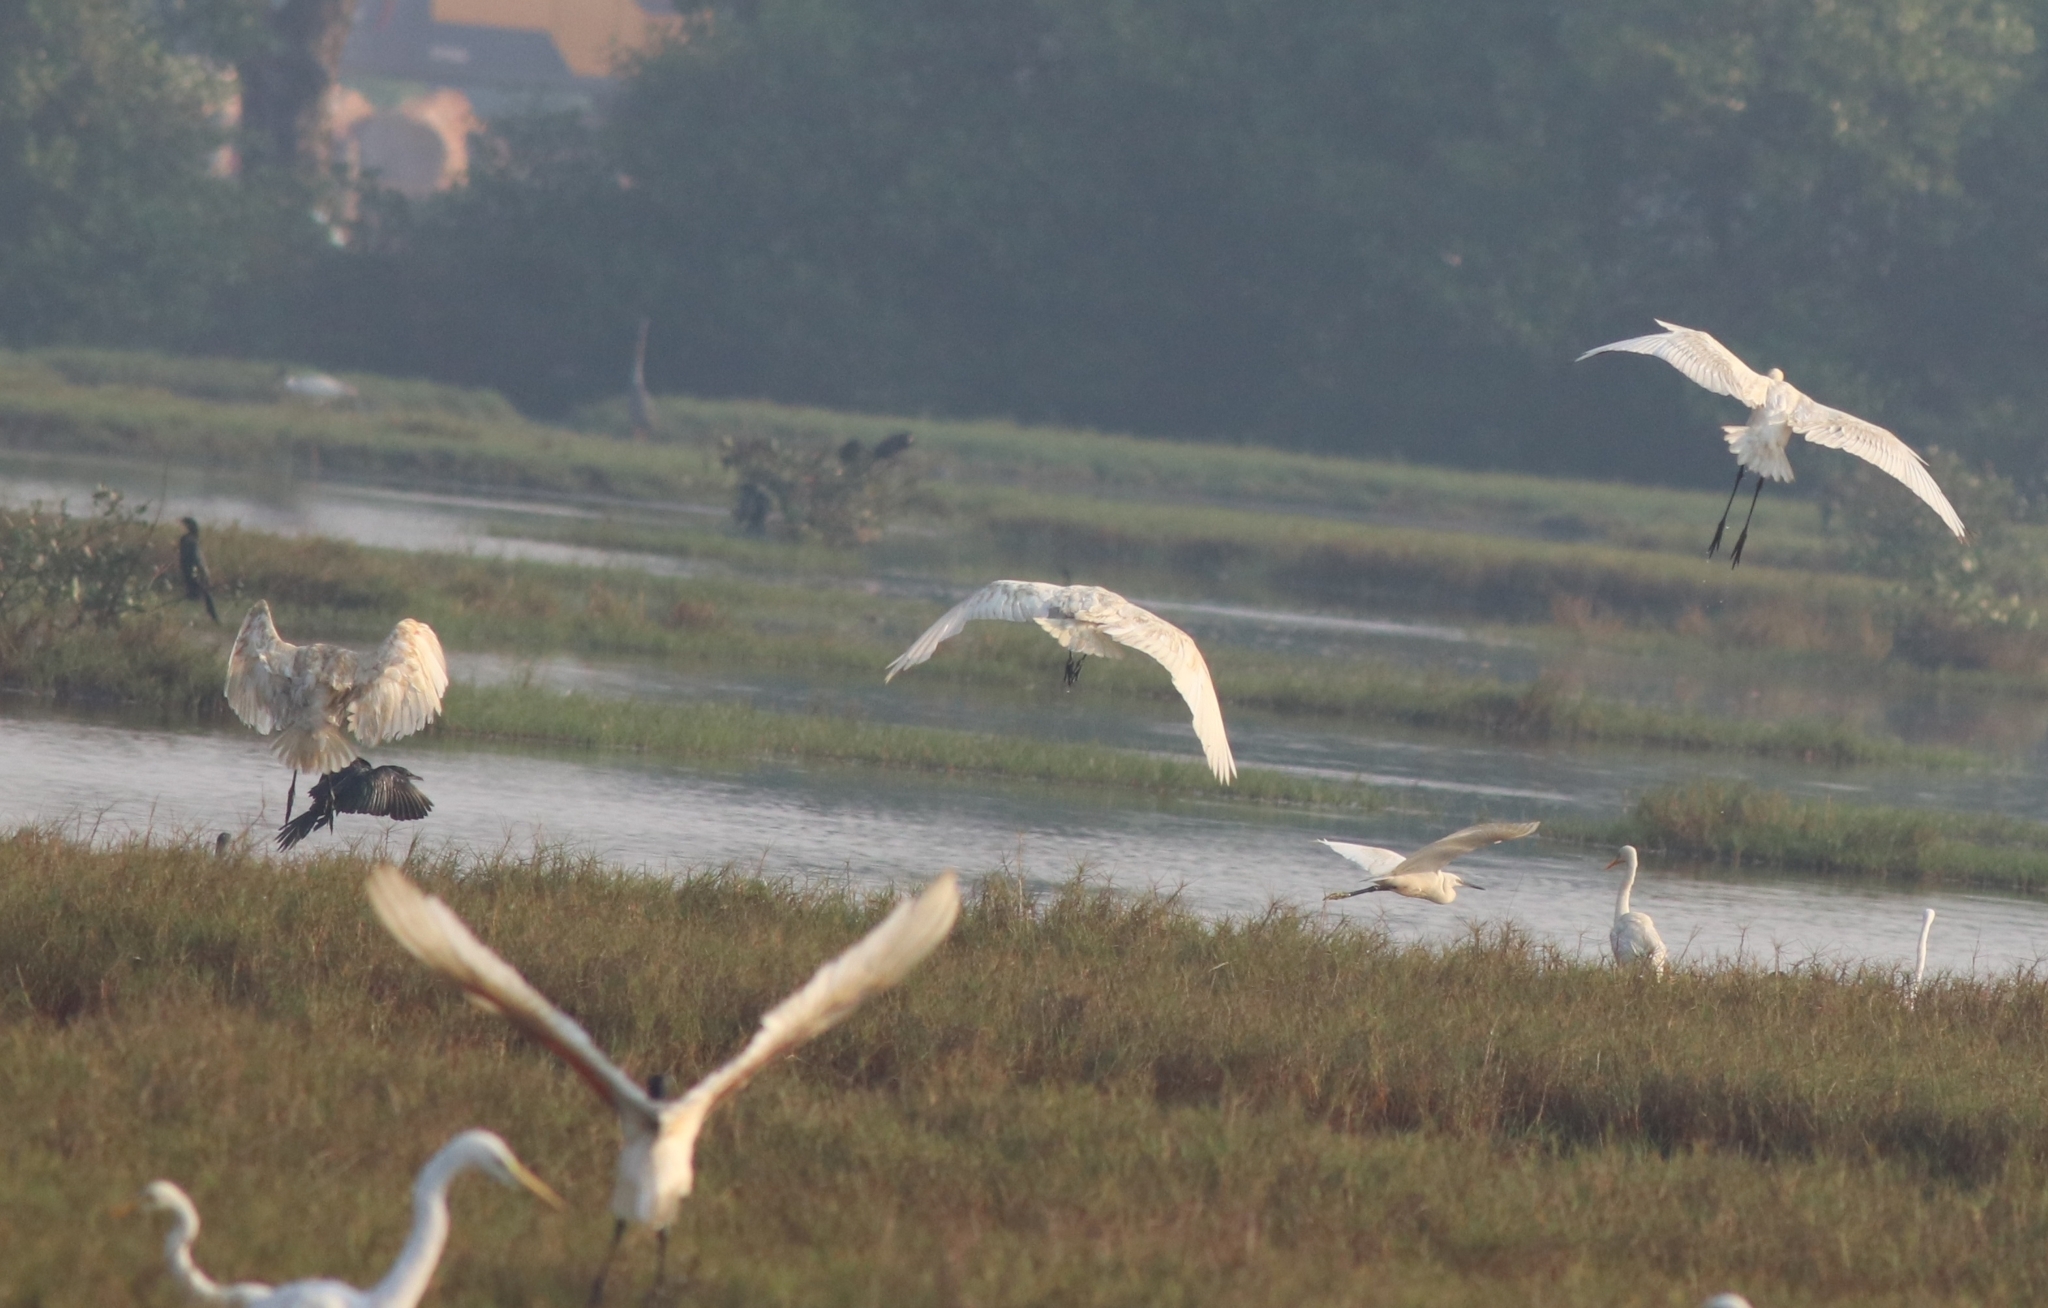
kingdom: Animalia
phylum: Chordata
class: Aves
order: Pelecaniformes
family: Threskiornithidae
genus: Threskiornis
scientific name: Threskiornis melanocephalus
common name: Black-headed ibis
